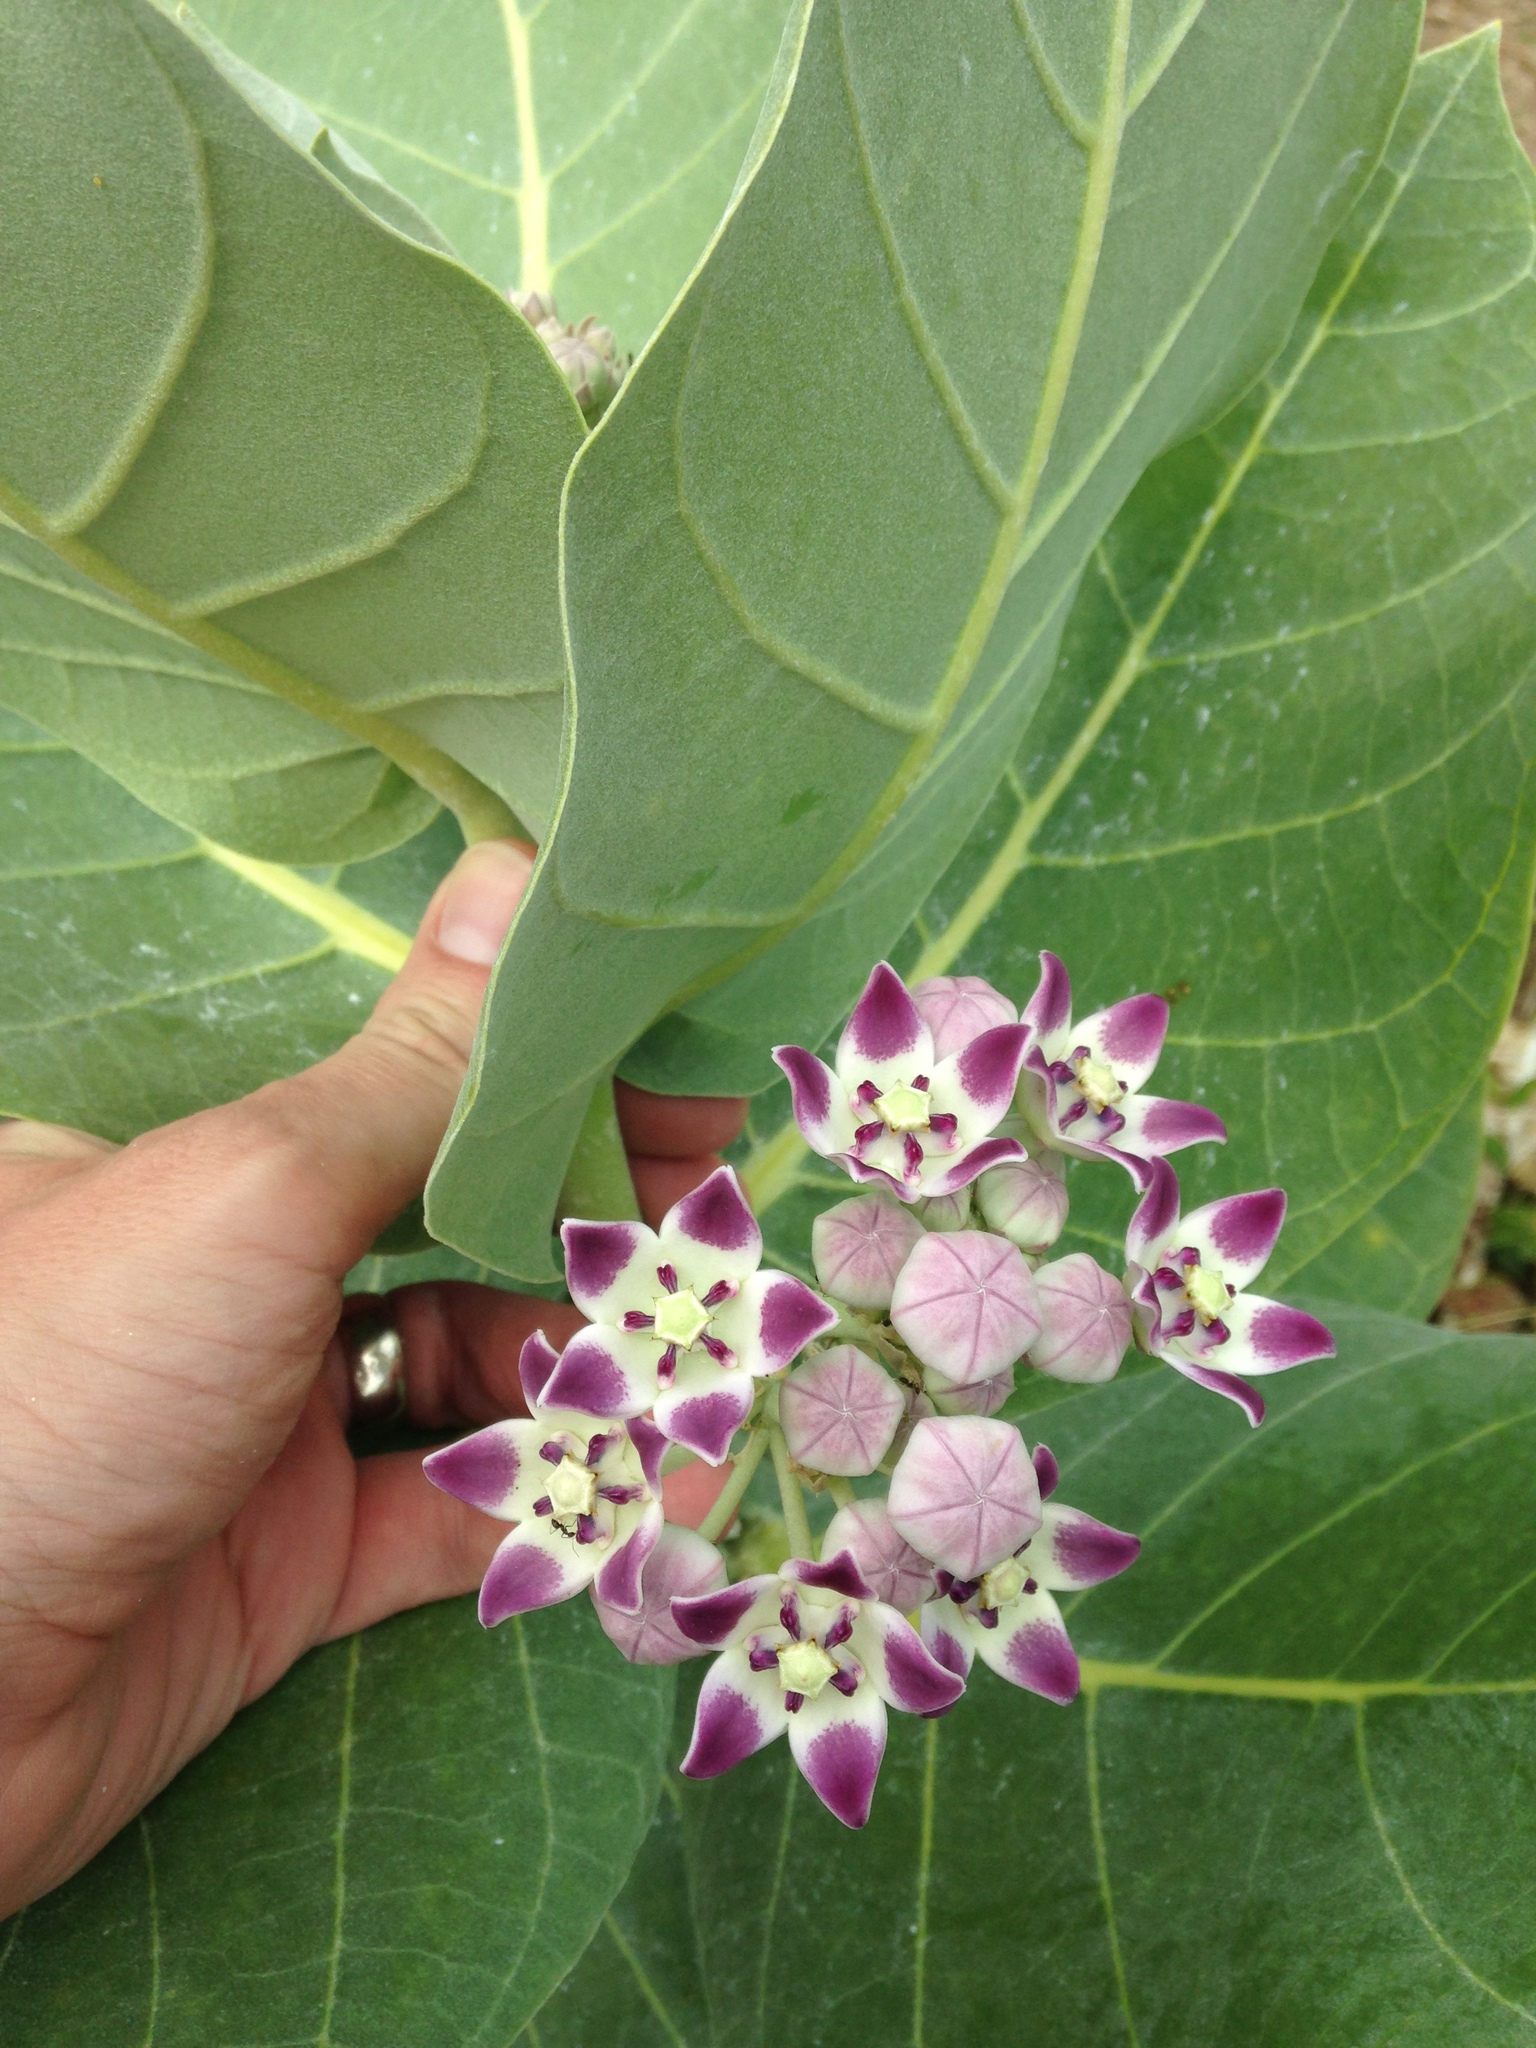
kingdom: Plantae
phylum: Tracheophyta
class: Magnoliopsida
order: Gentianales
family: Apocynaceae
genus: Calotropis
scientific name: Calotropis procera
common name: Roostertree
